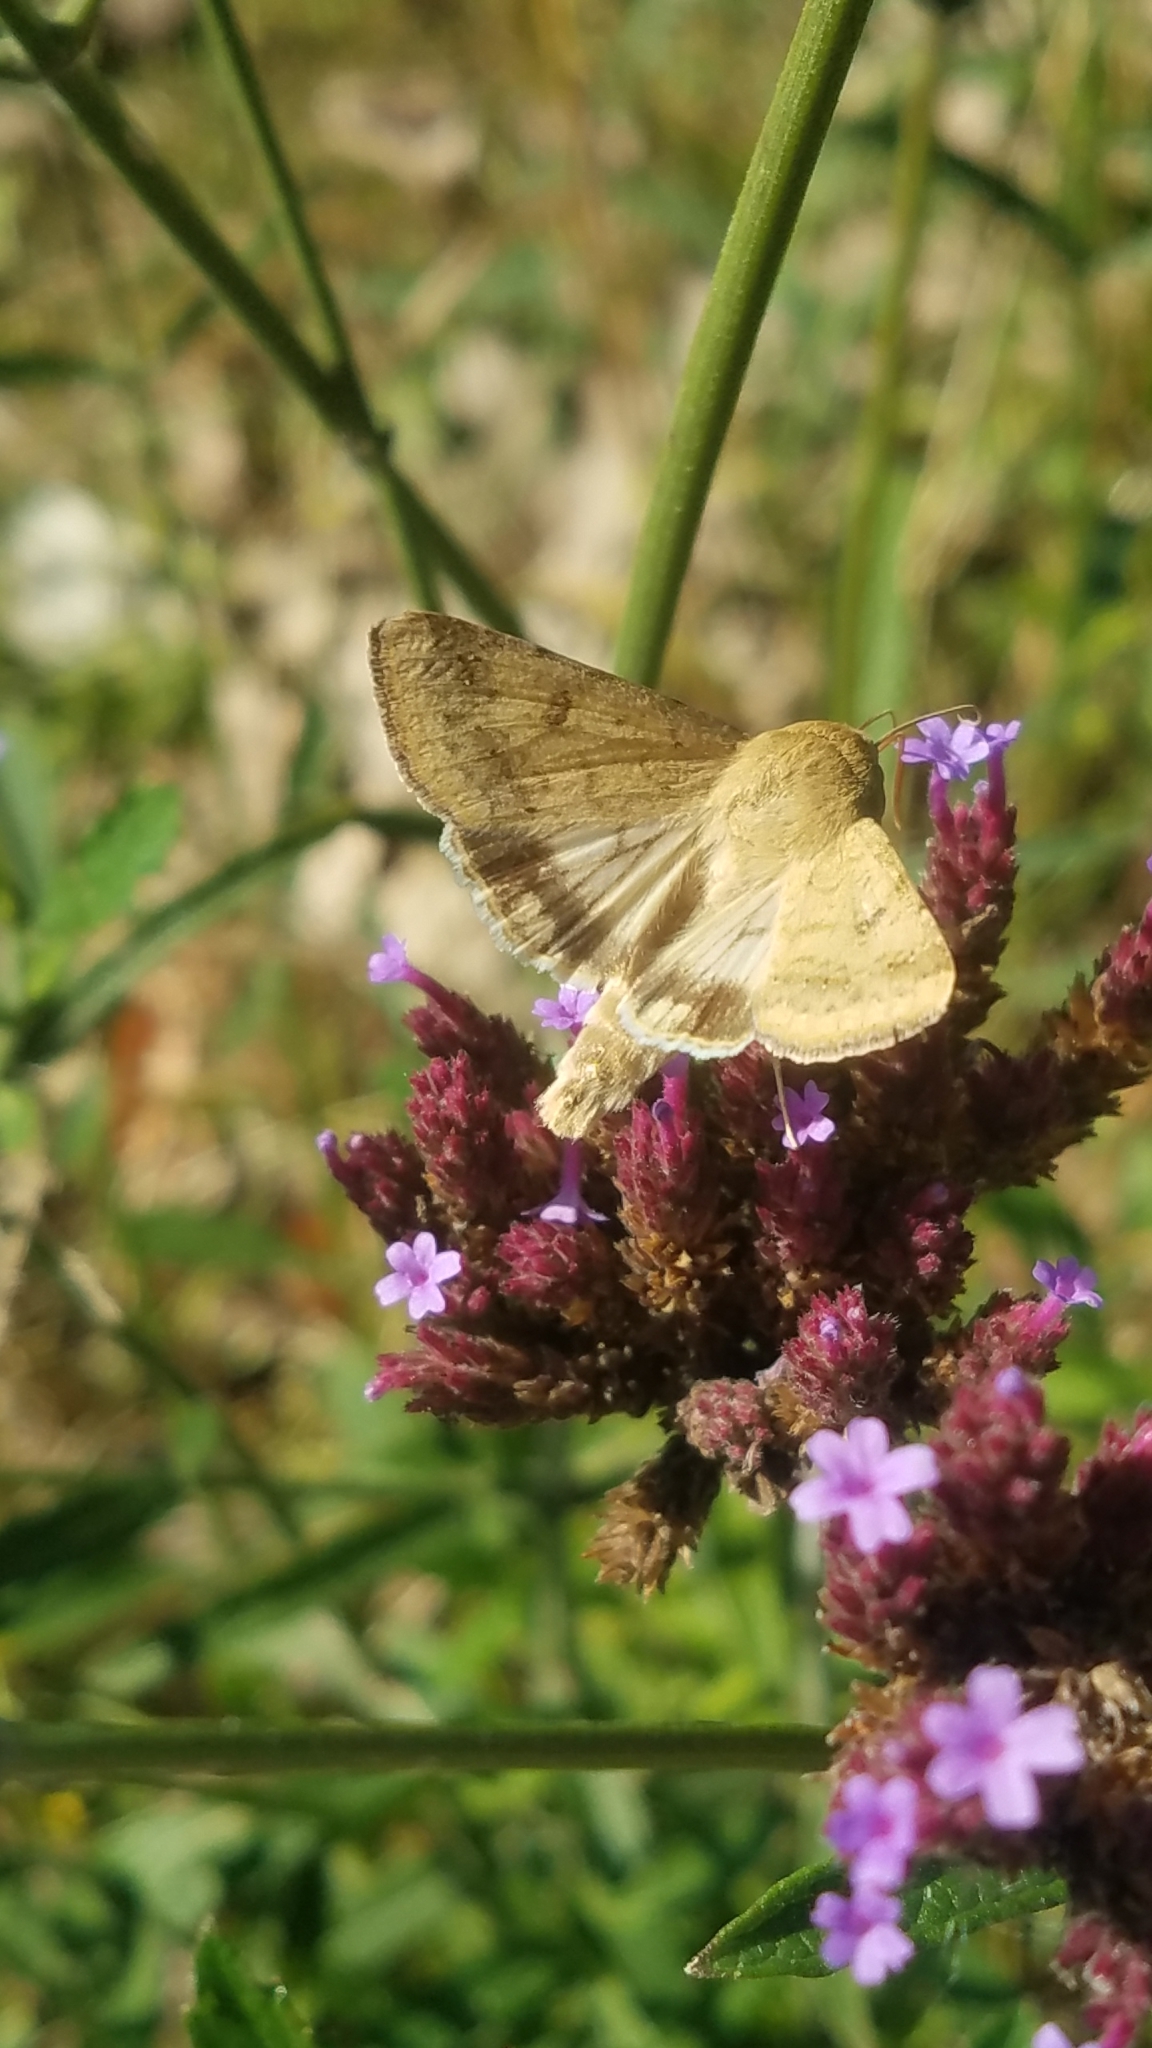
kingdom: Animalia
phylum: Arthropoda
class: Insecta
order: Lepidoptera
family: Noctuidae
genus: Helicoverpa
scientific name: Helicoverpa zea
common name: Bollworm
